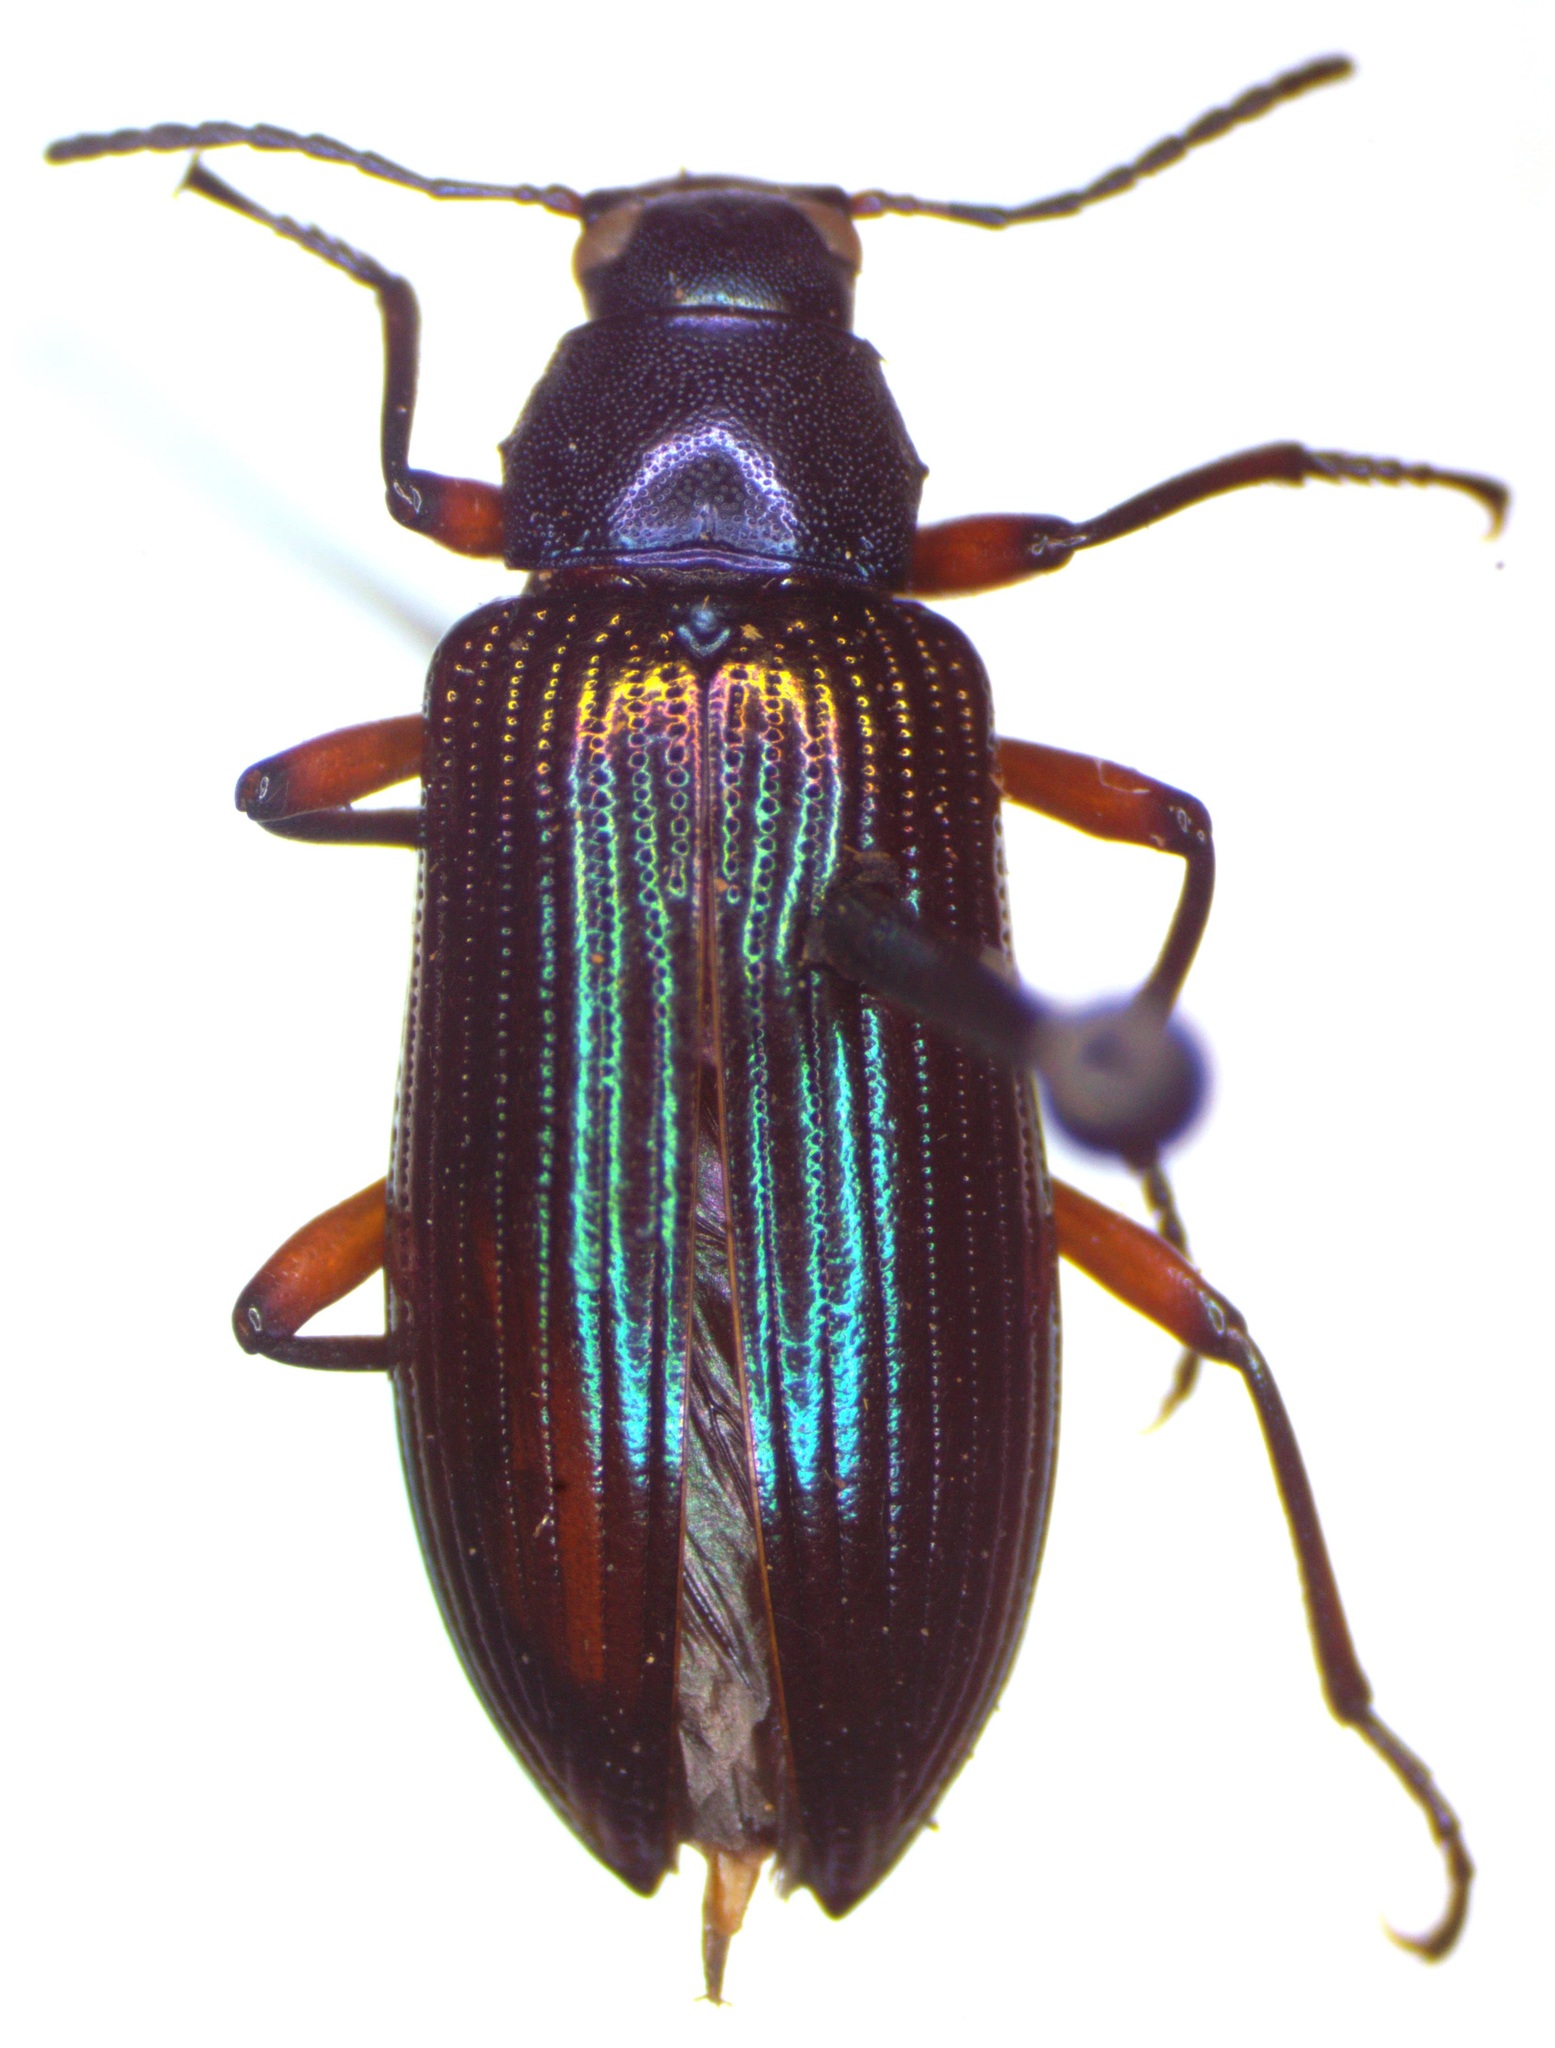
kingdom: Animalia
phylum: Arthropoda
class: Insecta
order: Coleoptera
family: Tenebrionidae
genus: Strongylium
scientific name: Strongylium
